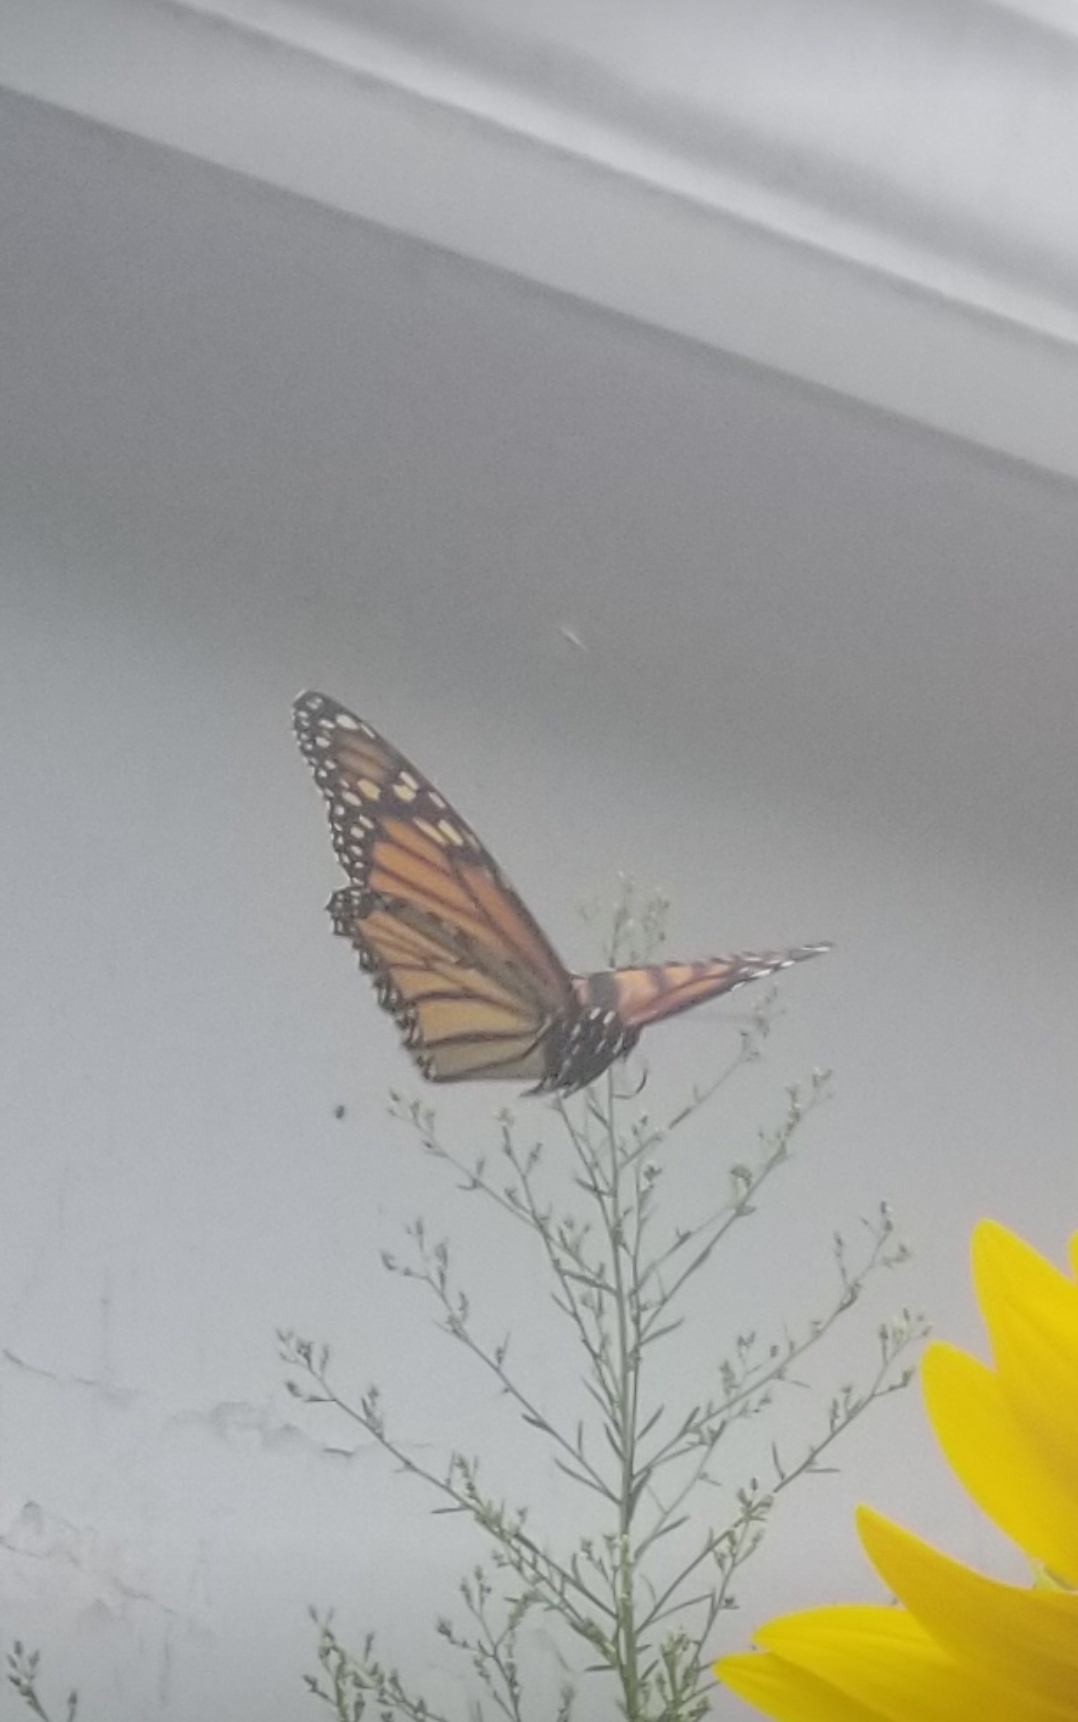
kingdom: Animalia
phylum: Arthropoda
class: Insecta
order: Lepidoptera
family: Nymphalidae
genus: Danaus
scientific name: Danaus plexippus
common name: Monarch
